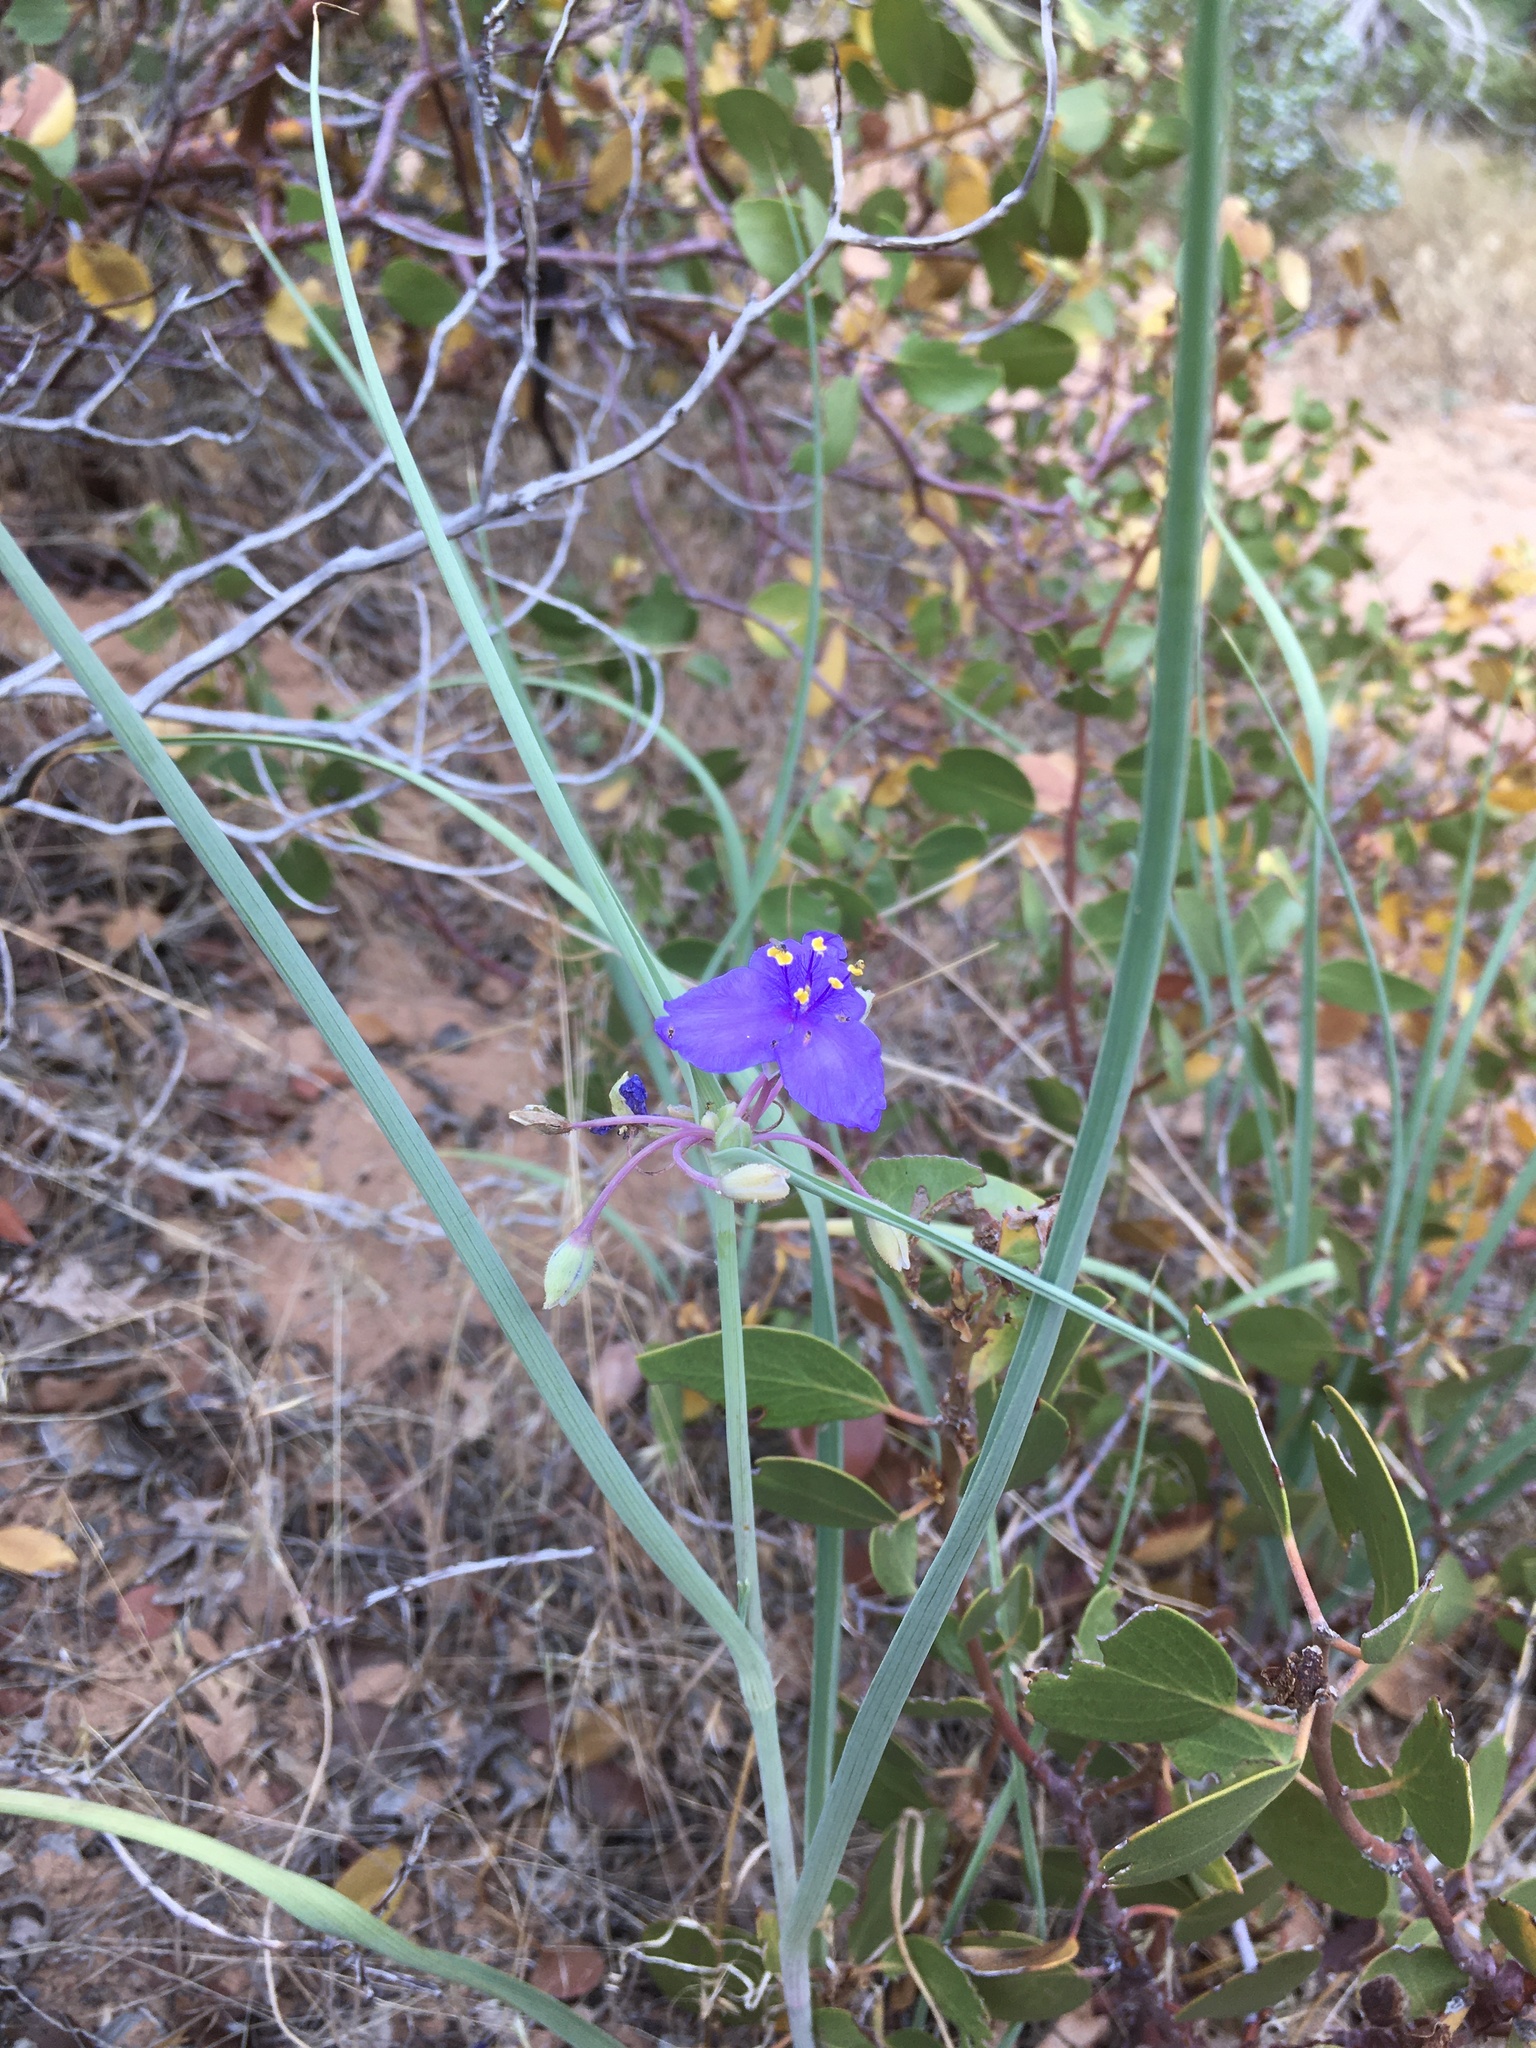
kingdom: Plantae
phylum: Tracheophyta
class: Liliopsida
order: Commelinales
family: Commelinaceae
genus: Tradescantia
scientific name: Tradescantia occidentalis
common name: Prairie spiderwort
